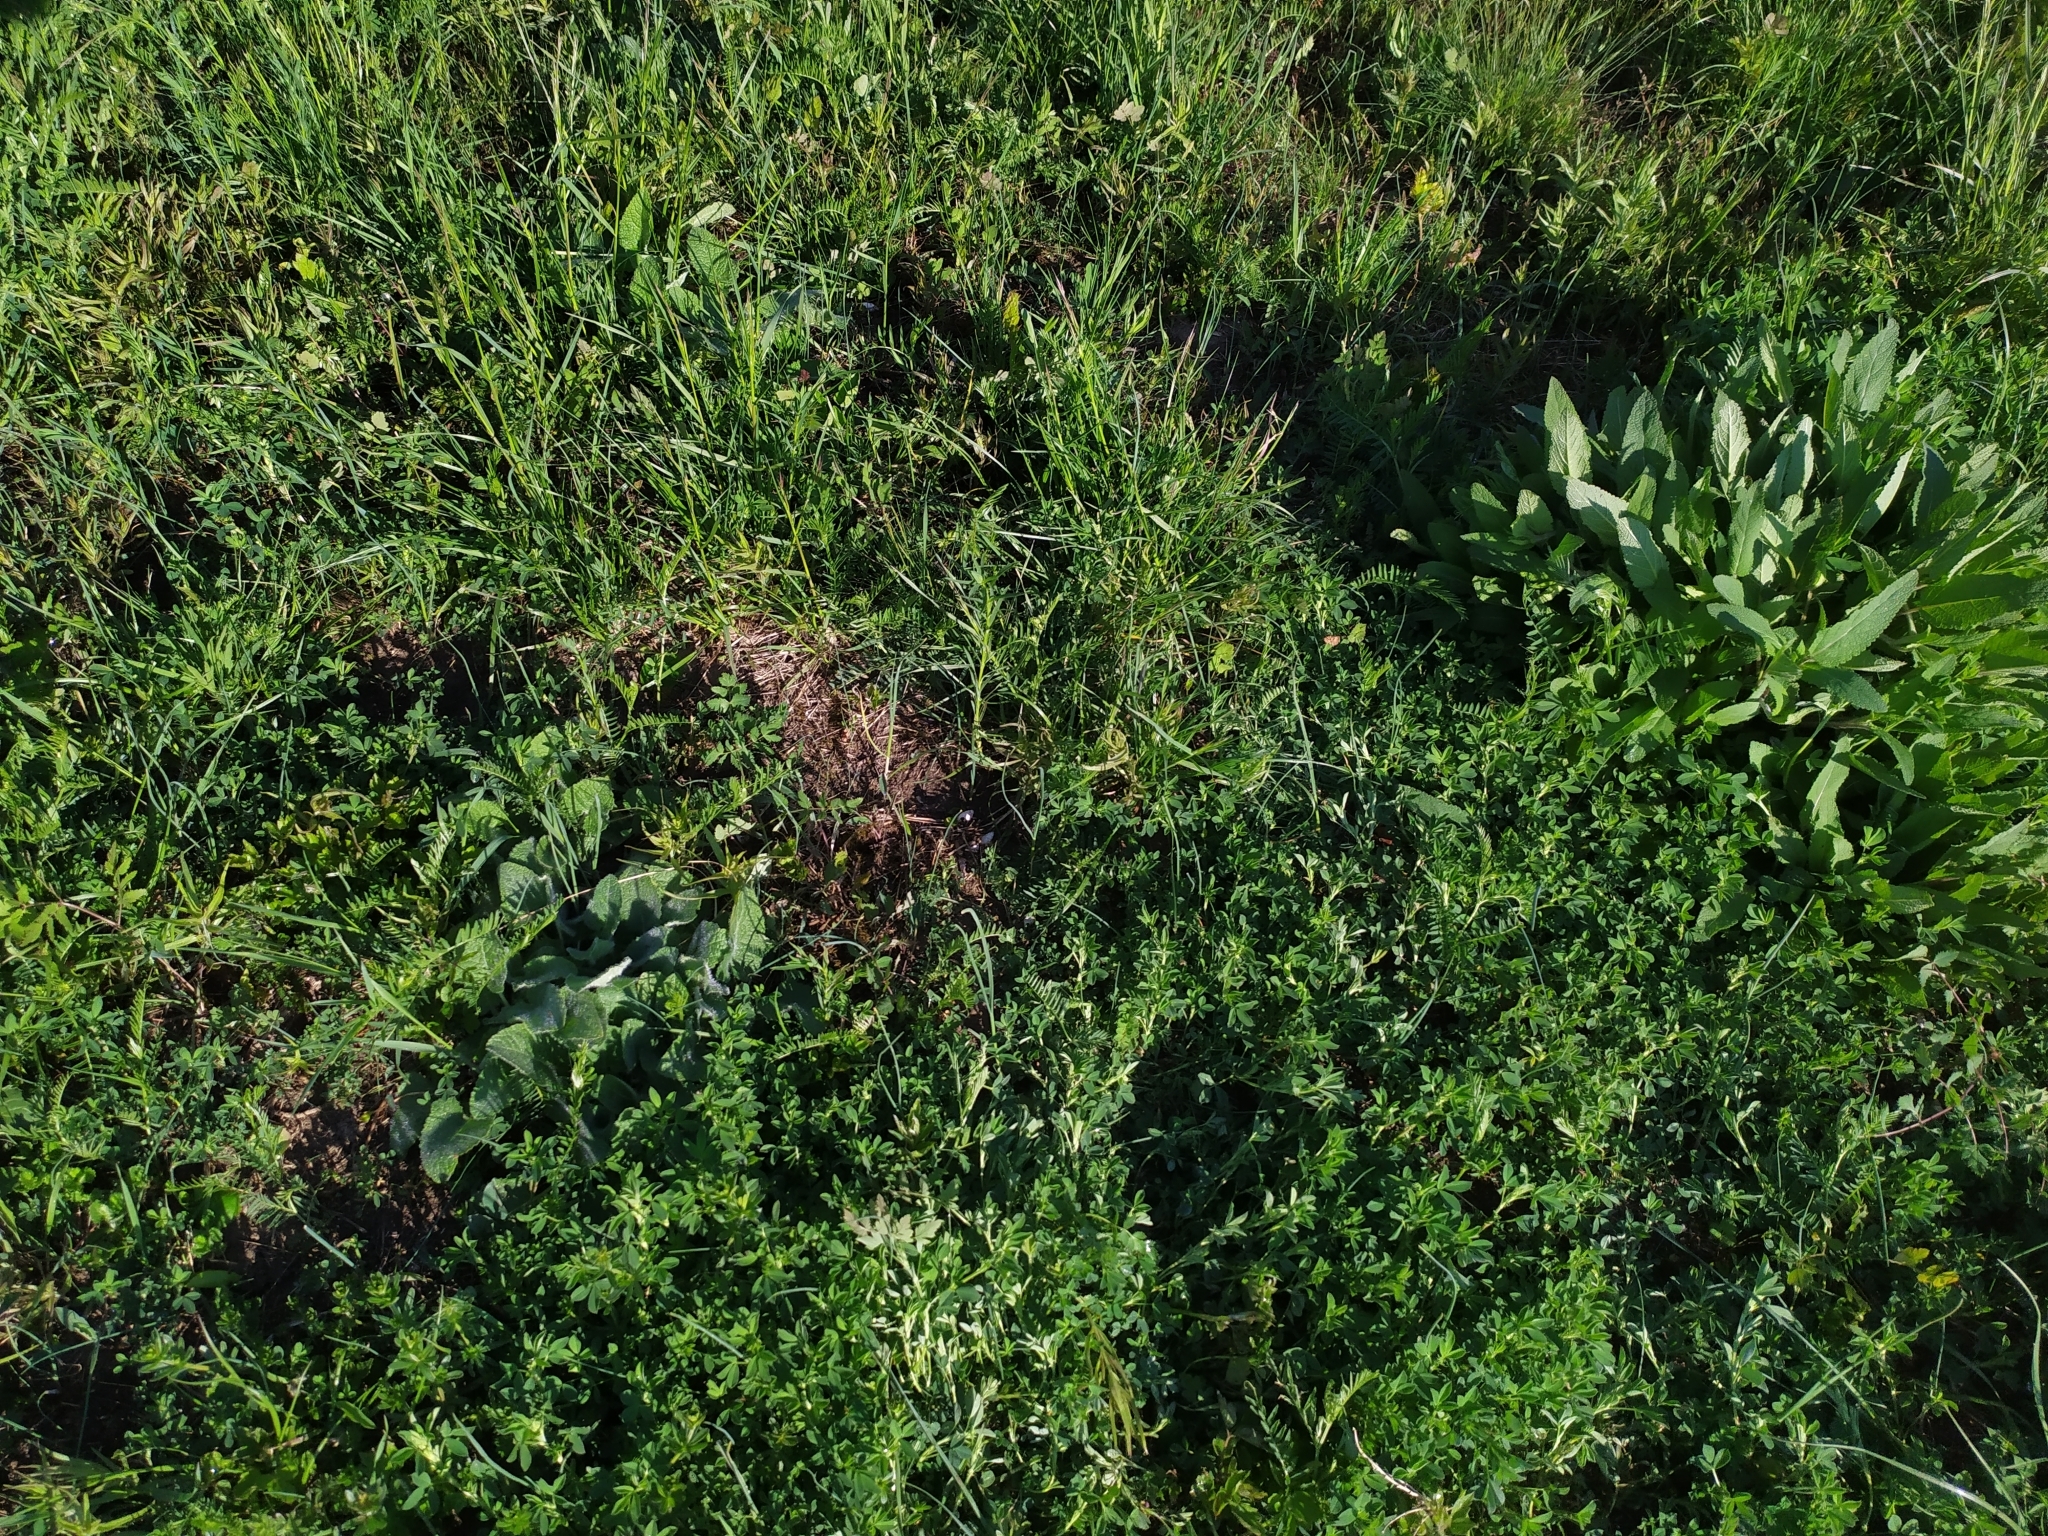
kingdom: Plantae
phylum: Tracheophyta
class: Magnoliopsida
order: Lamiales
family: Lamiaceae
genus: Salvia
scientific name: Salvia nemorosa
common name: Balkan clary
